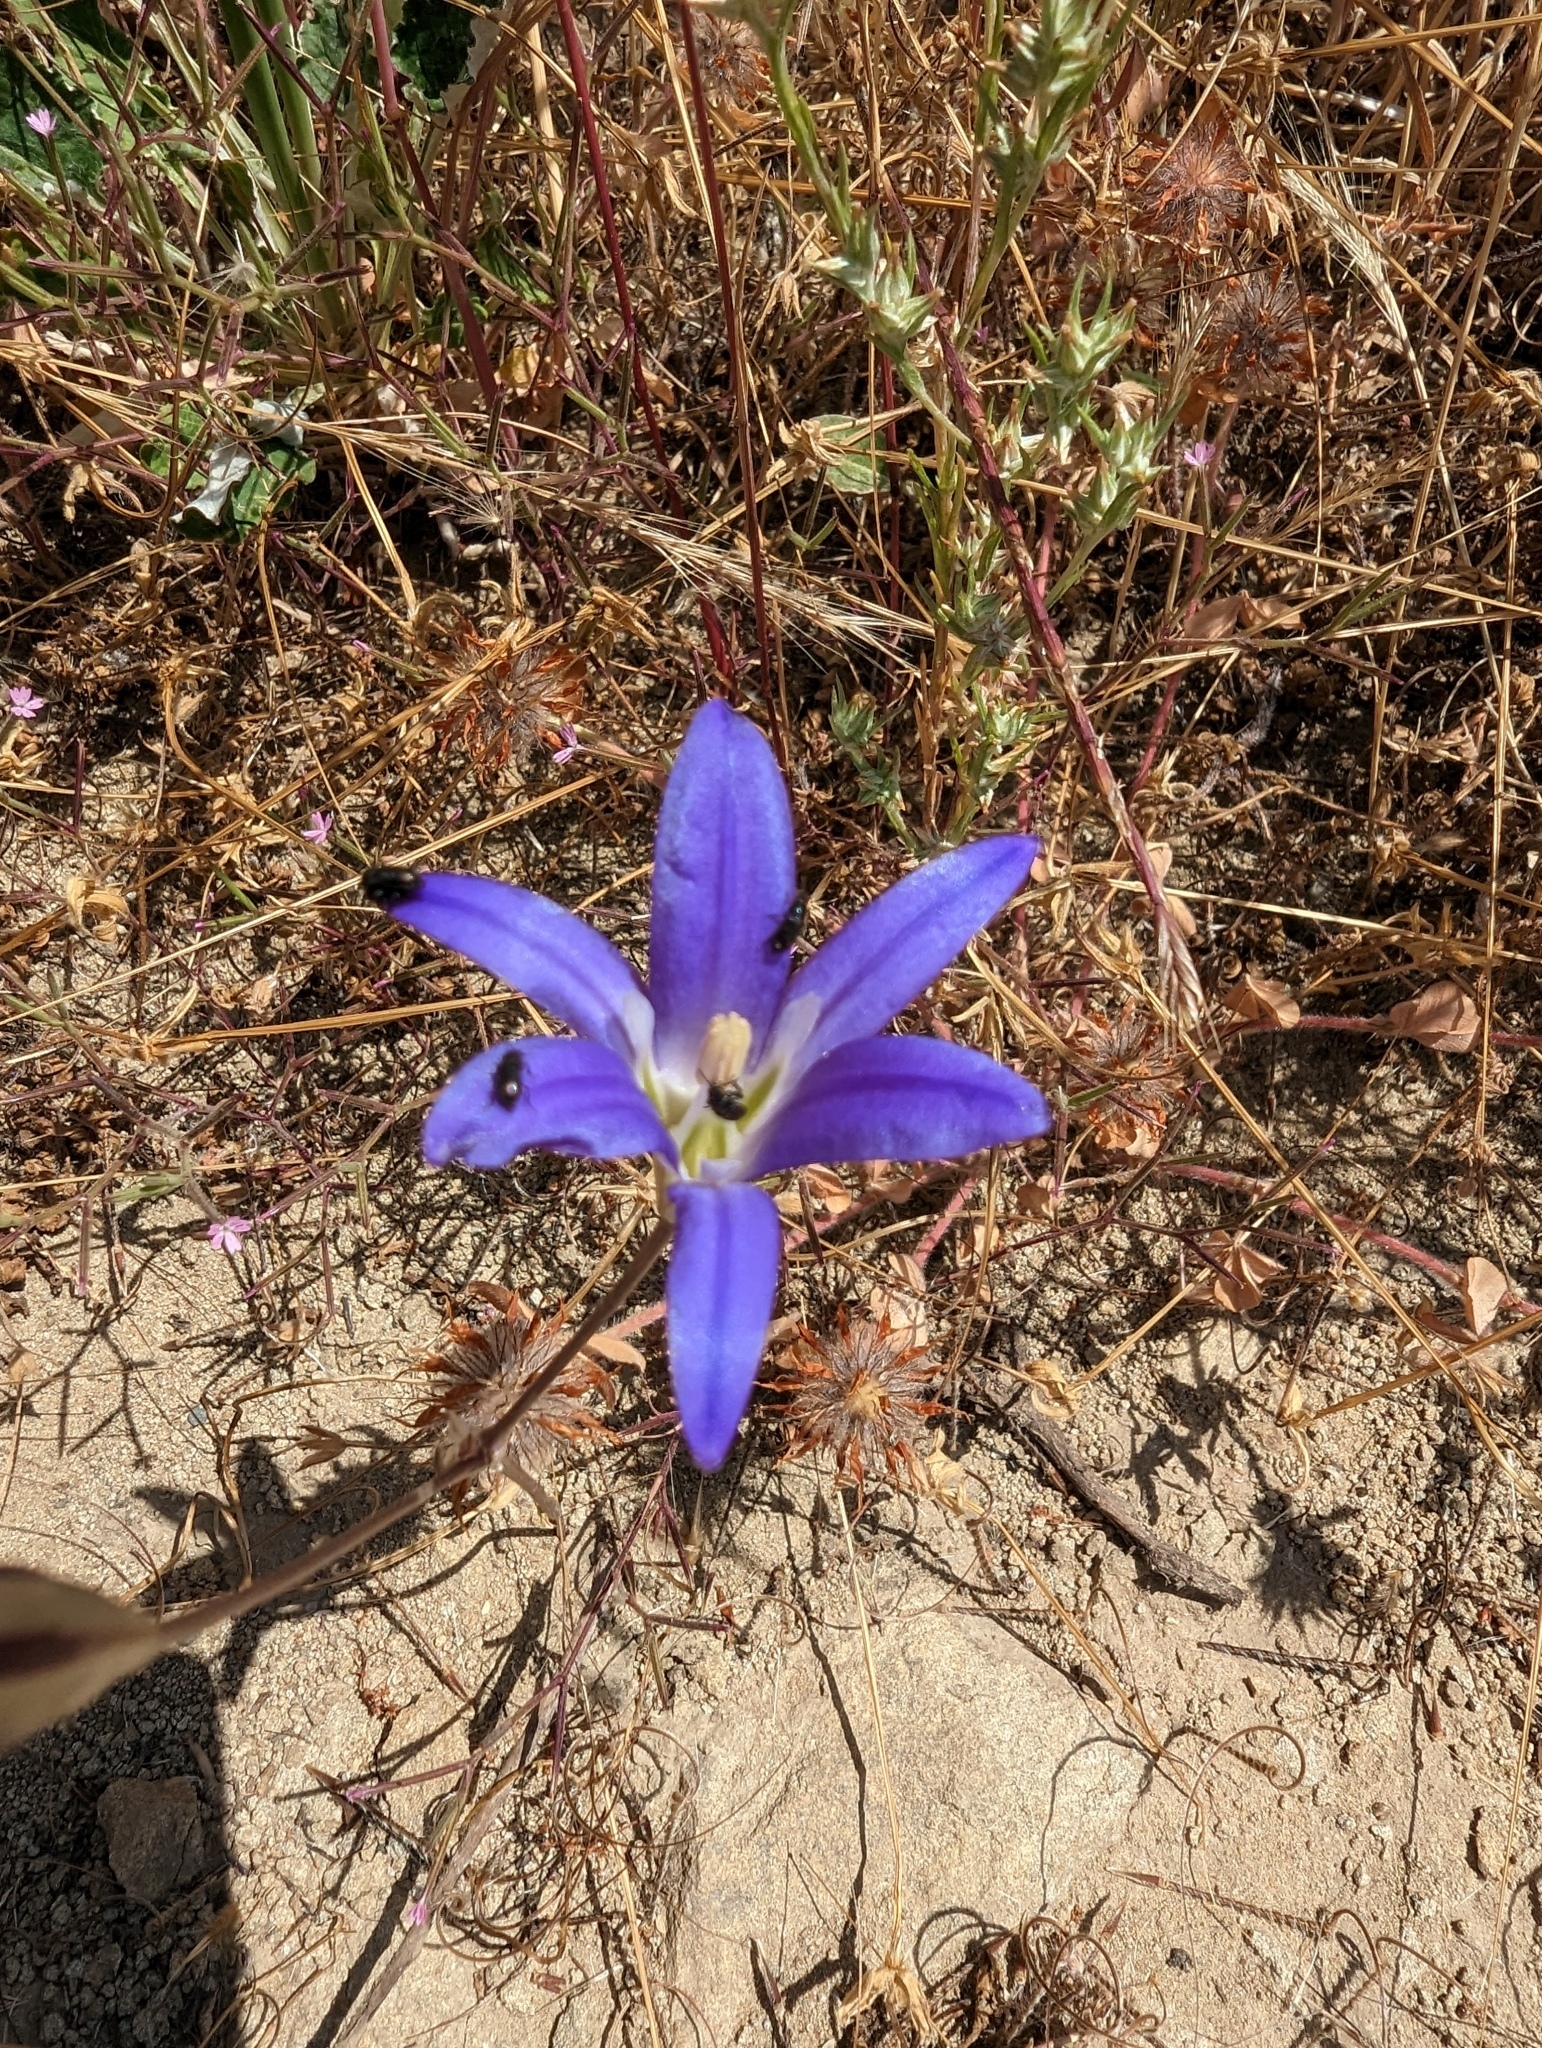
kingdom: Plantae
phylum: Tracheophyta
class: Liliopsida
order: Asparagales
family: Asparagaceae
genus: Brodiaea
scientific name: Brodiaea elegans
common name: Elegant cluster-lily
